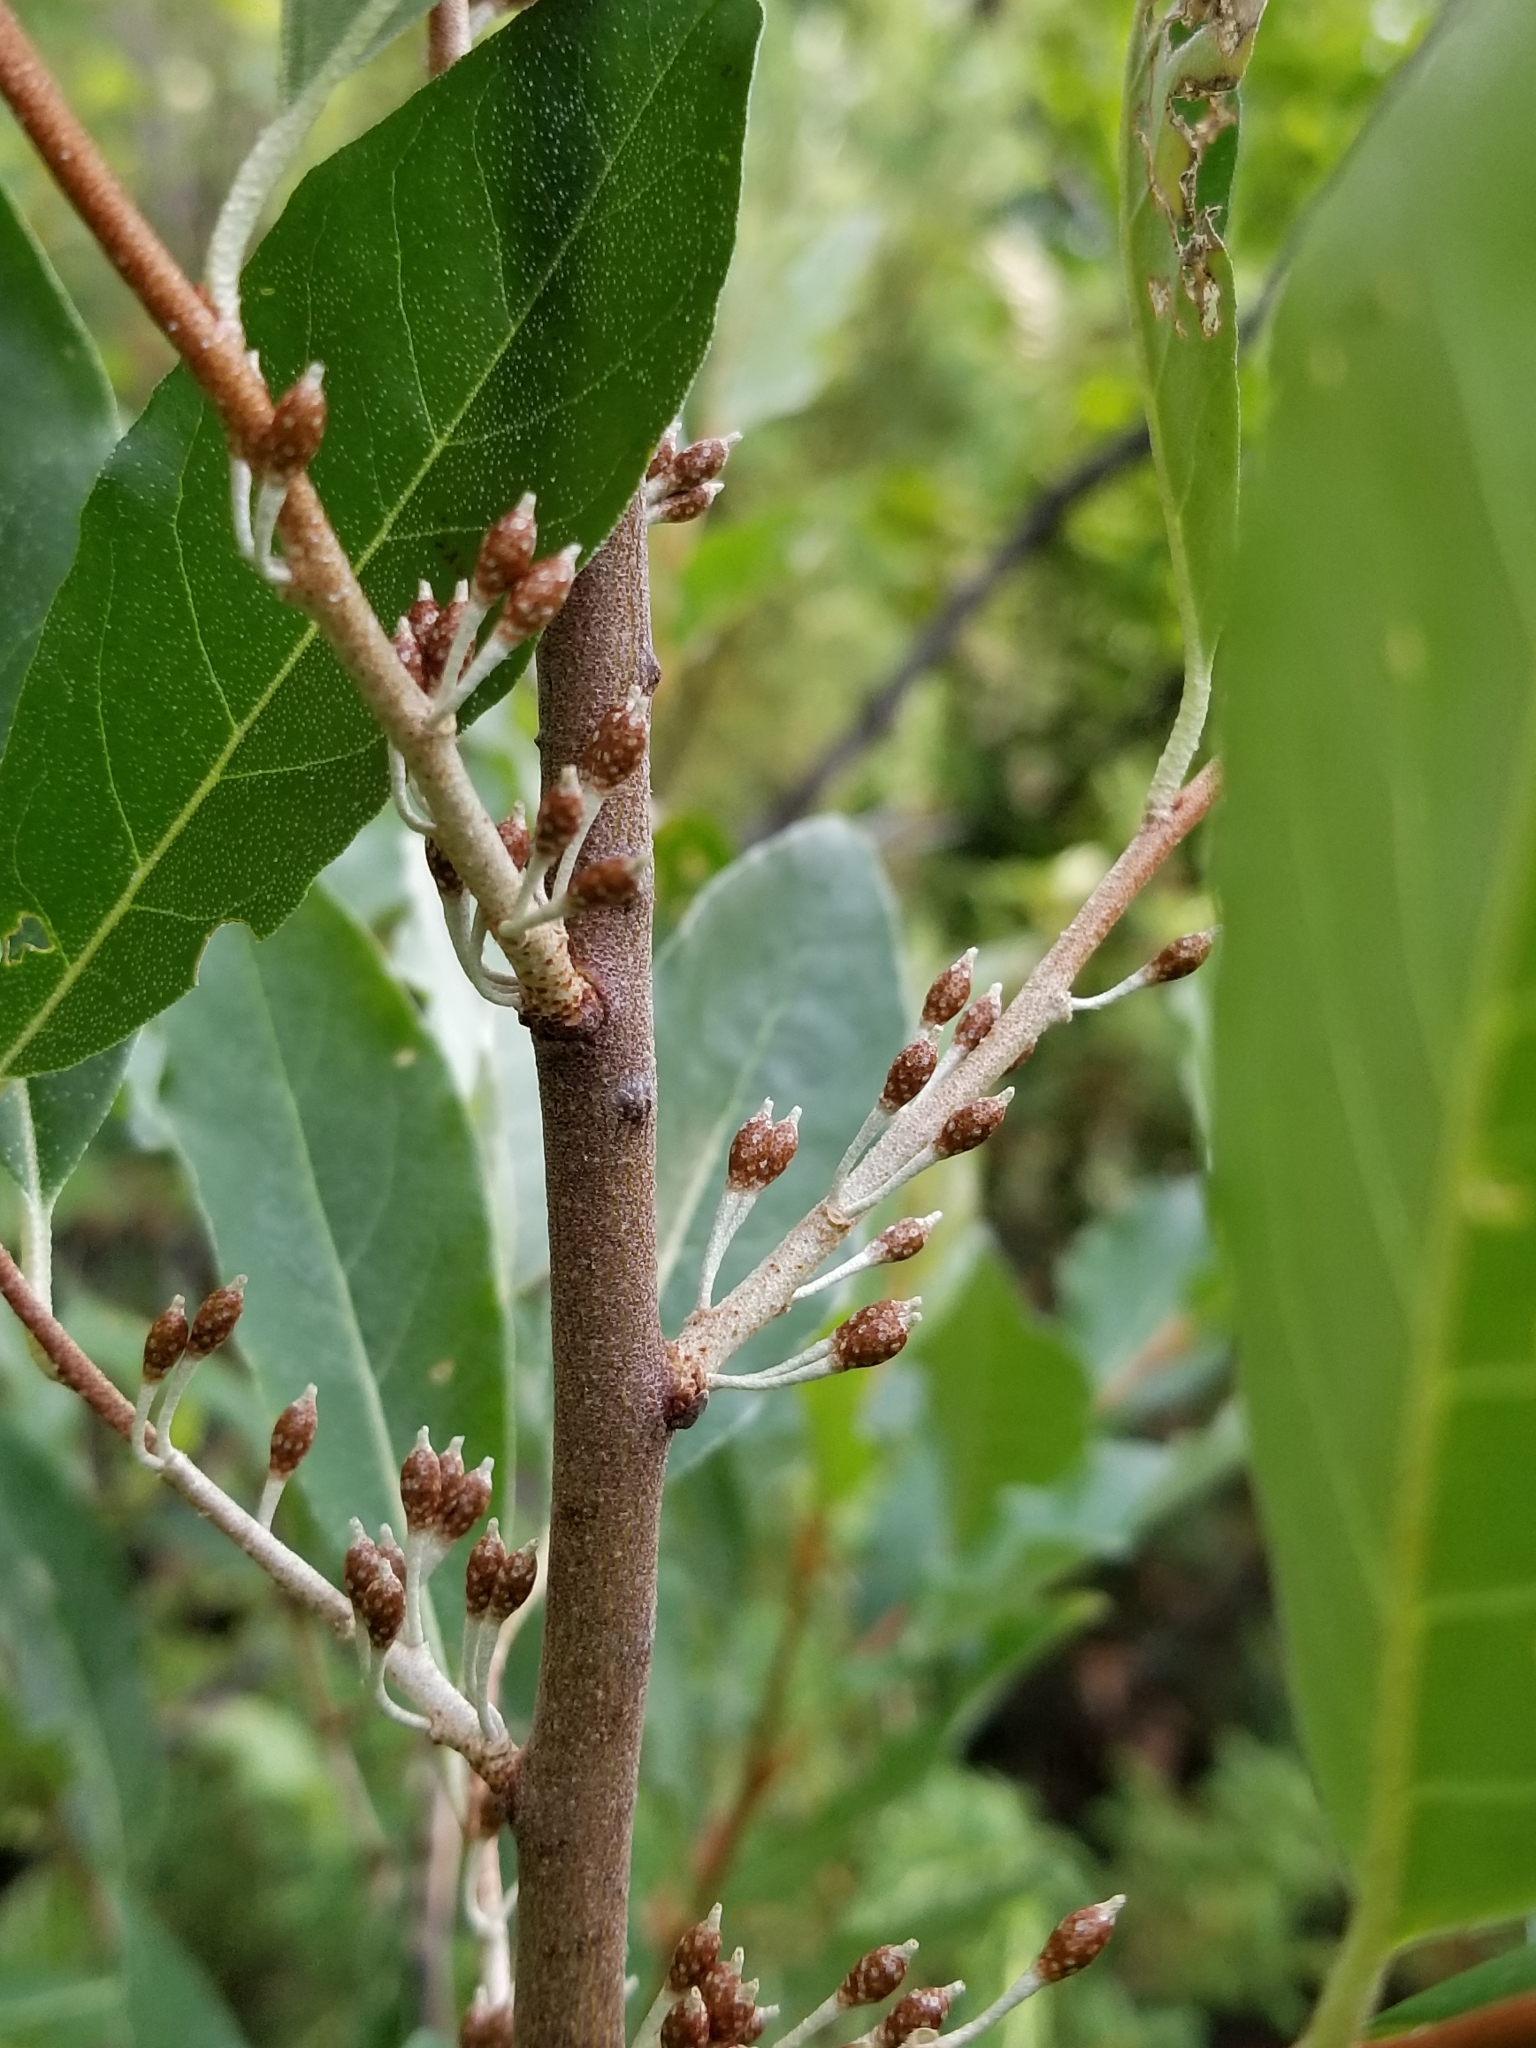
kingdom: Plantae
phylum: Tracheophyta
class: Magnoliopsida
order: Rosales
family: Elaeagnaceae
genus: Elaeagnus
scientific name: Elaeagnus umbellata
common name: Autumn olive
